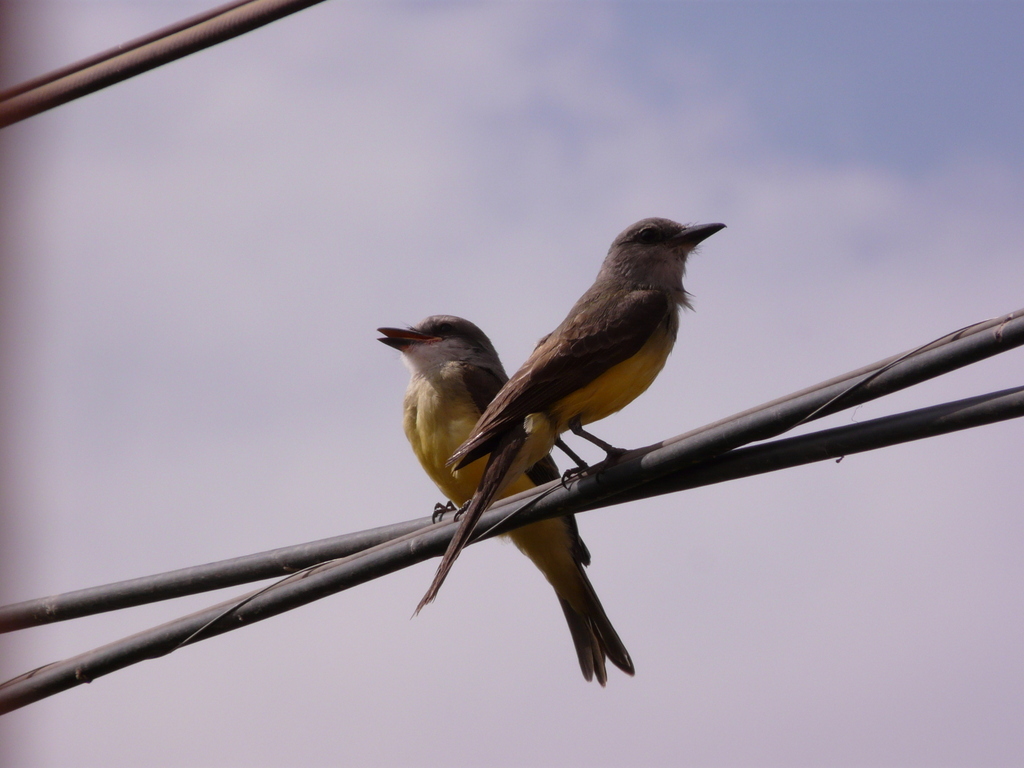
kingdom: Animalia
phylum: Chordata
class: Aves
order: Passeriformes
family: Tyrannidae
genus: Tyrannus
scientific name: Tyrannus melancholicus
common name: Tropical kingbird
